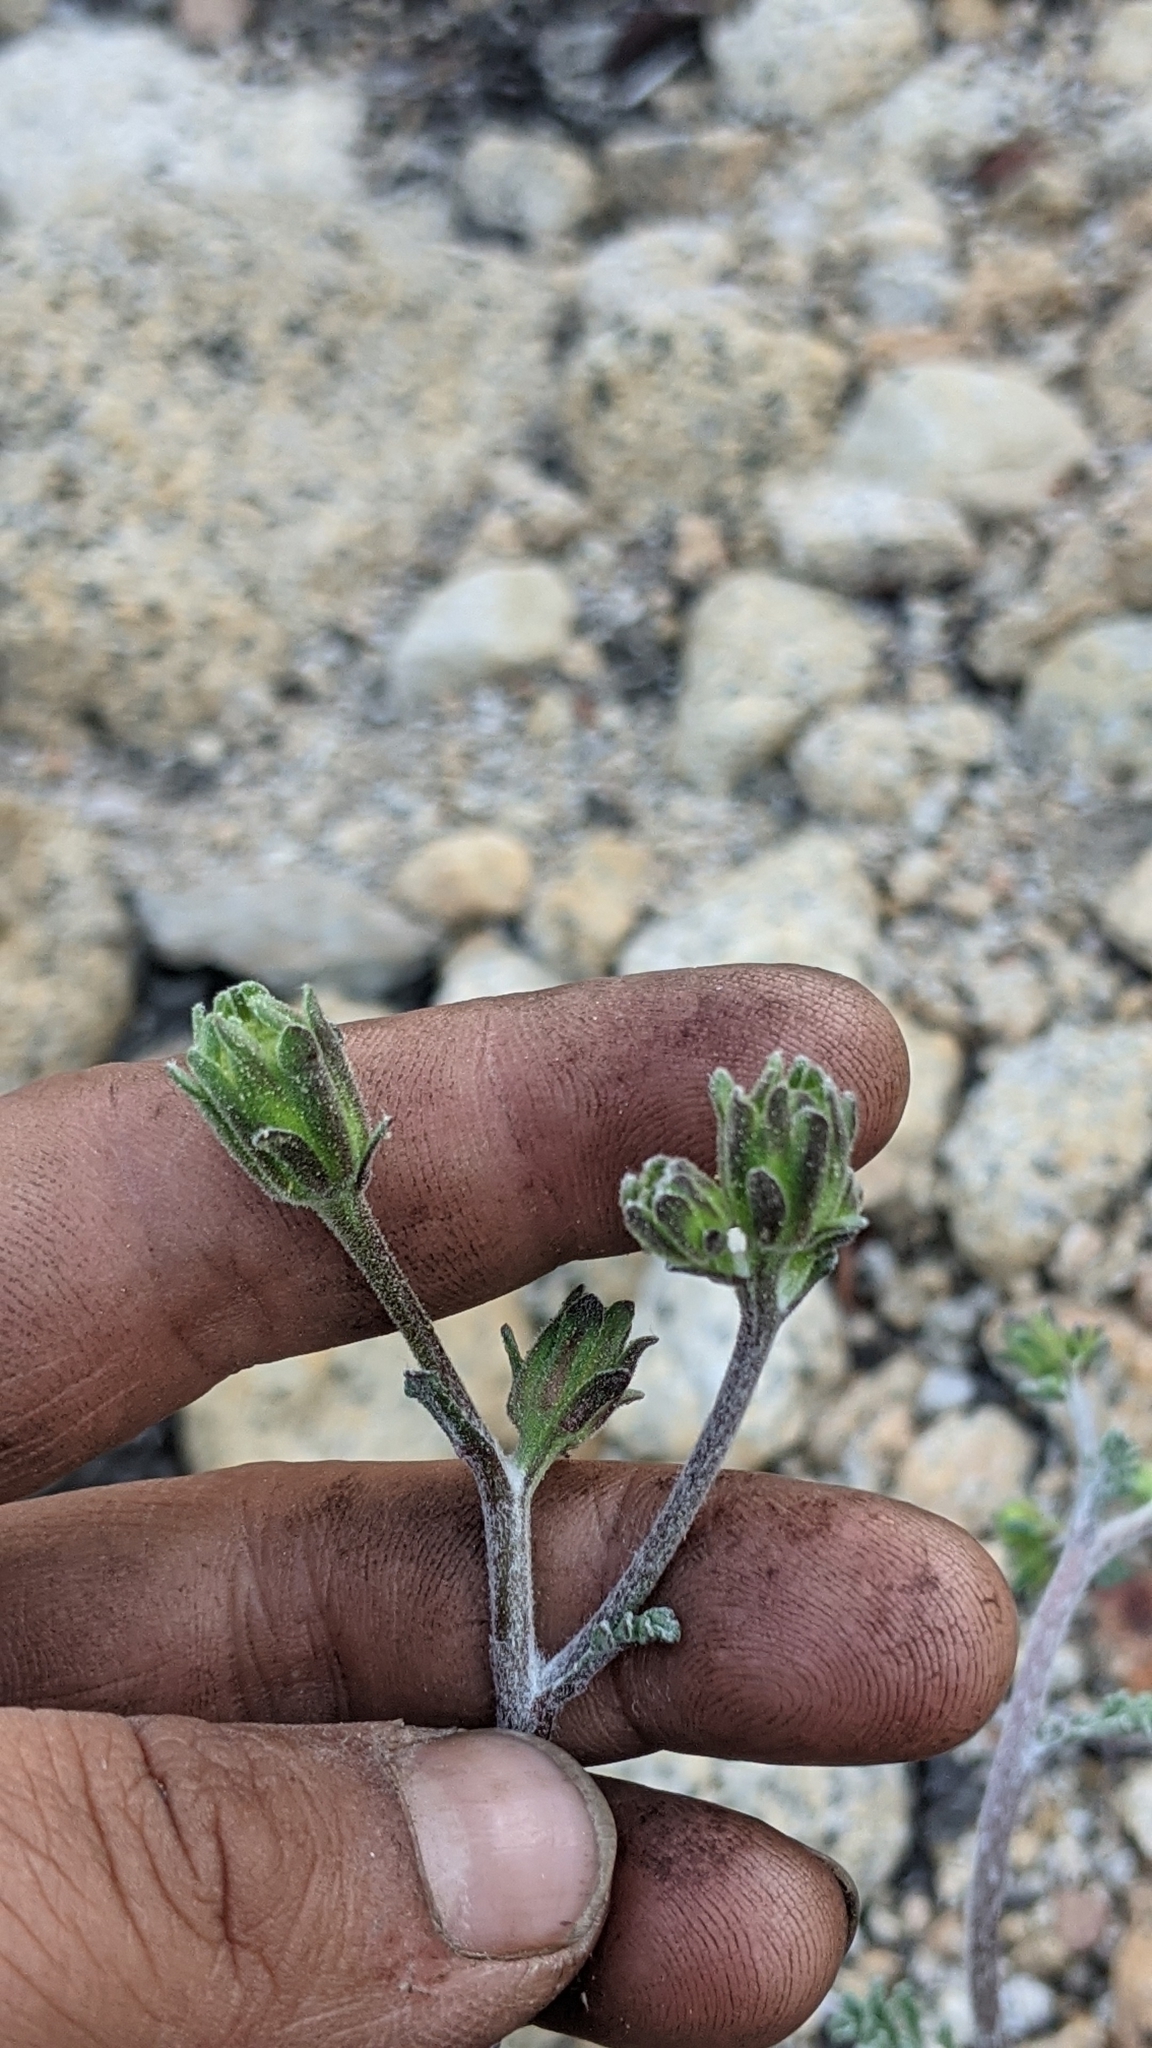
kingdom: Plantae
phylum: Tracheophyta
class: Magnoliopsida
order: Asterales
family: Asteraceae
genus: Chaenactis
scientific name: Chaenactis douglasii
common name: Hoary pincushion
